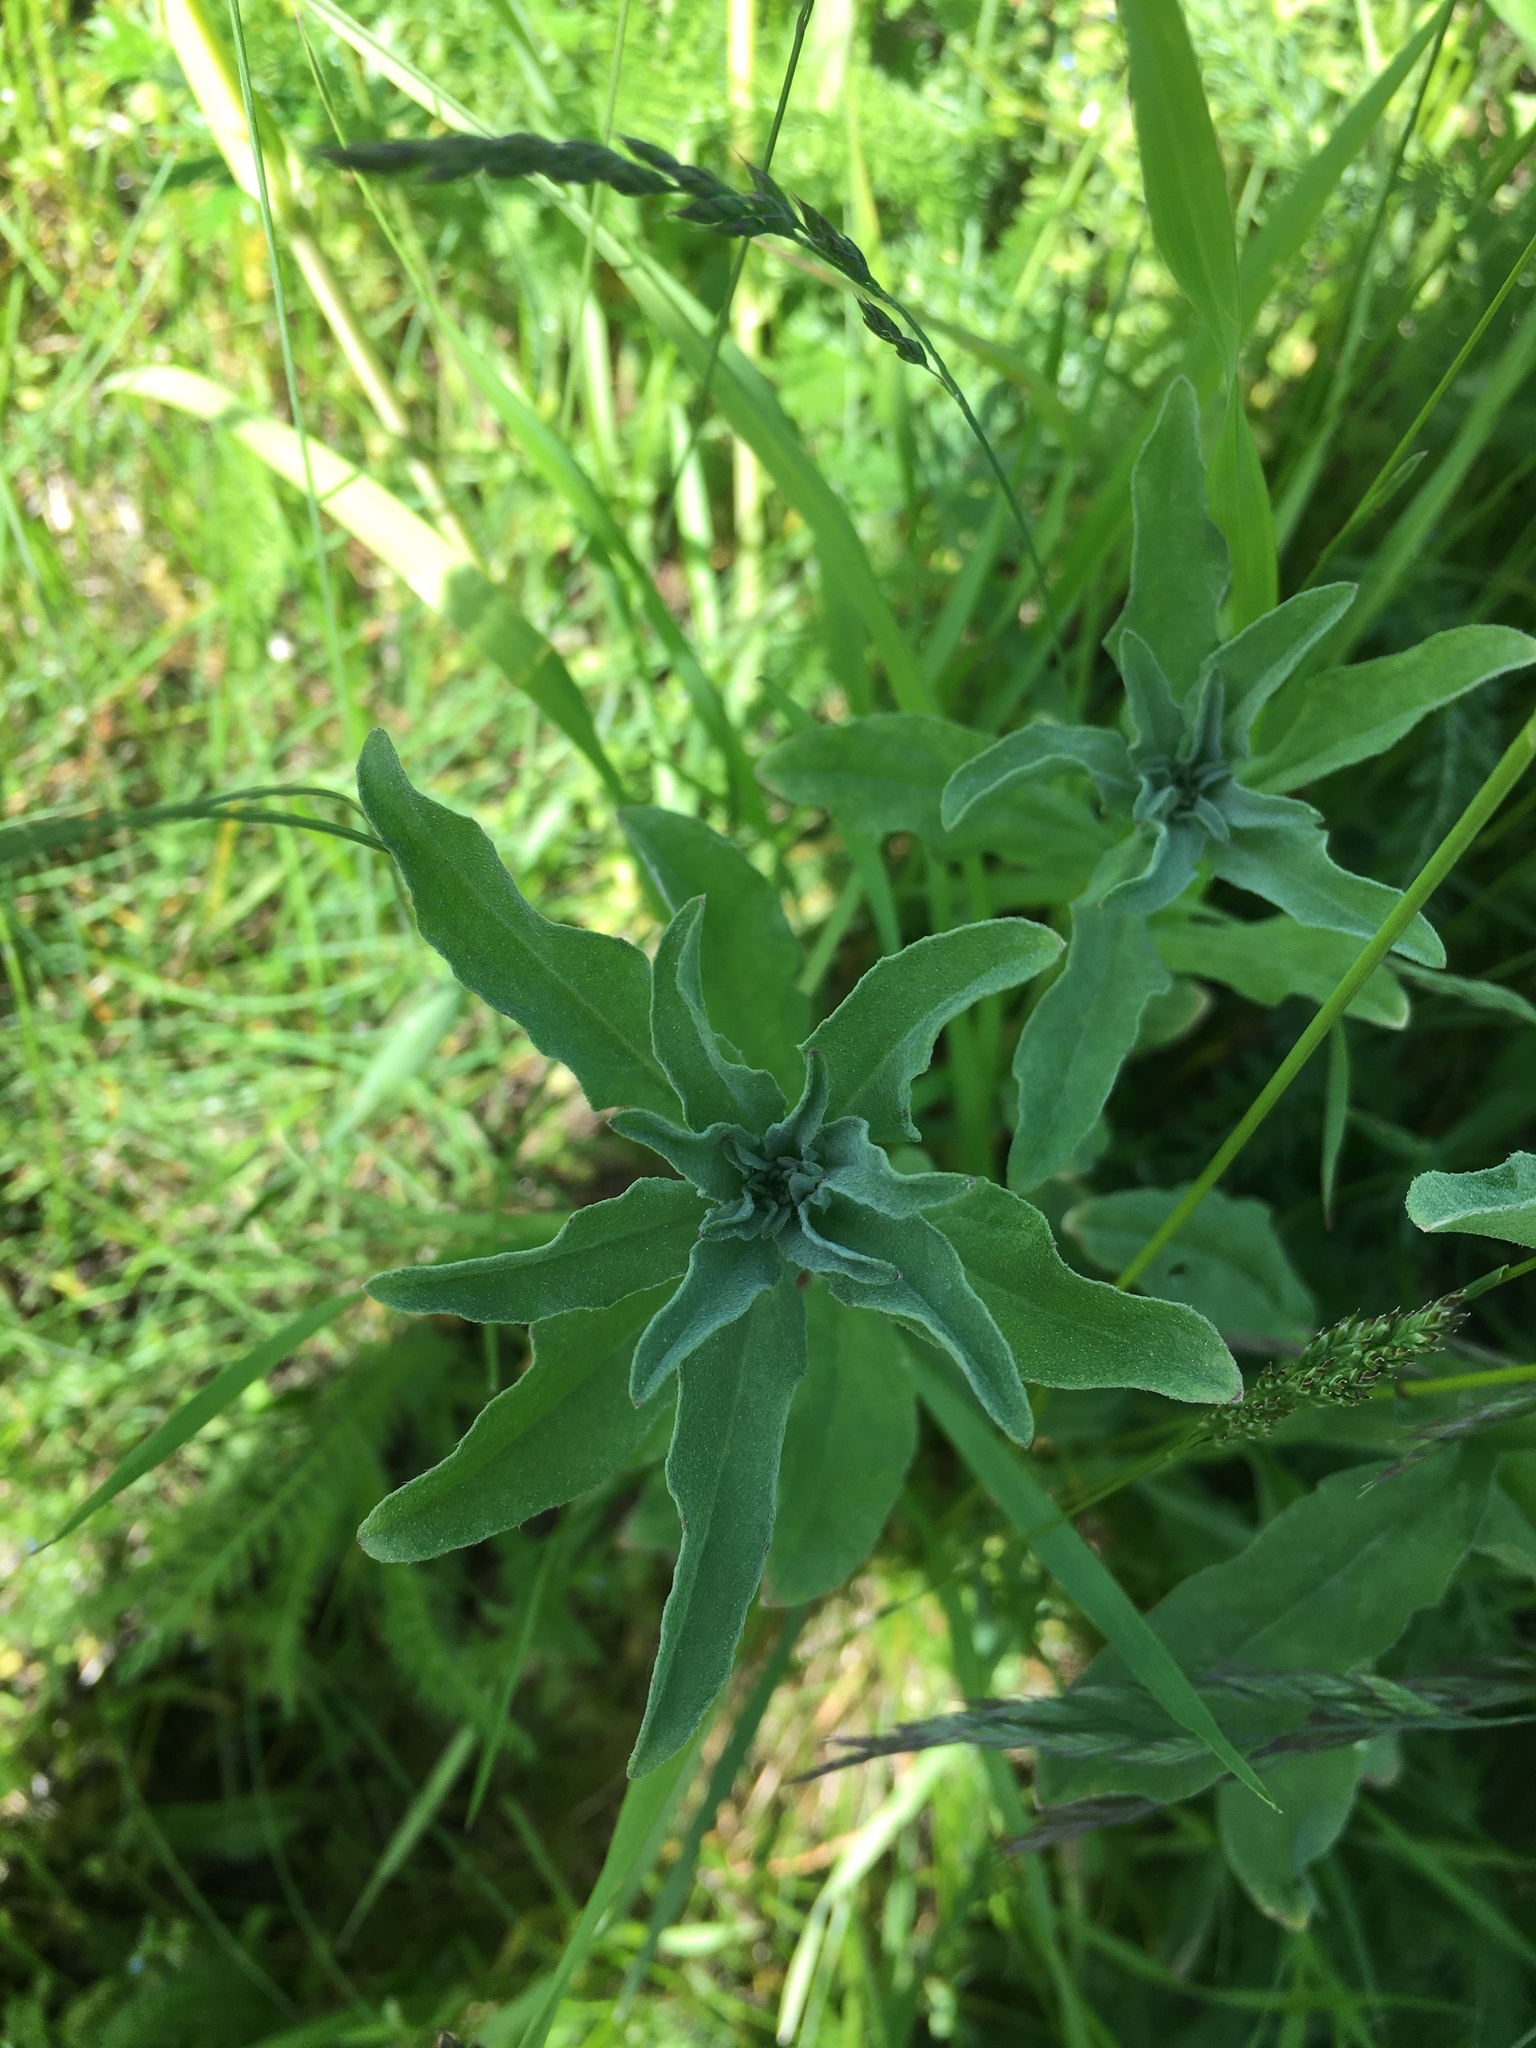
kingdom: Plantae
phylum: Tracheophyta
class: Magnoliopsida
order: Brassicales
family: Brassicaceae
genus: Berteroa
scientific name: Berteroa incana
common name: Hoary alison
